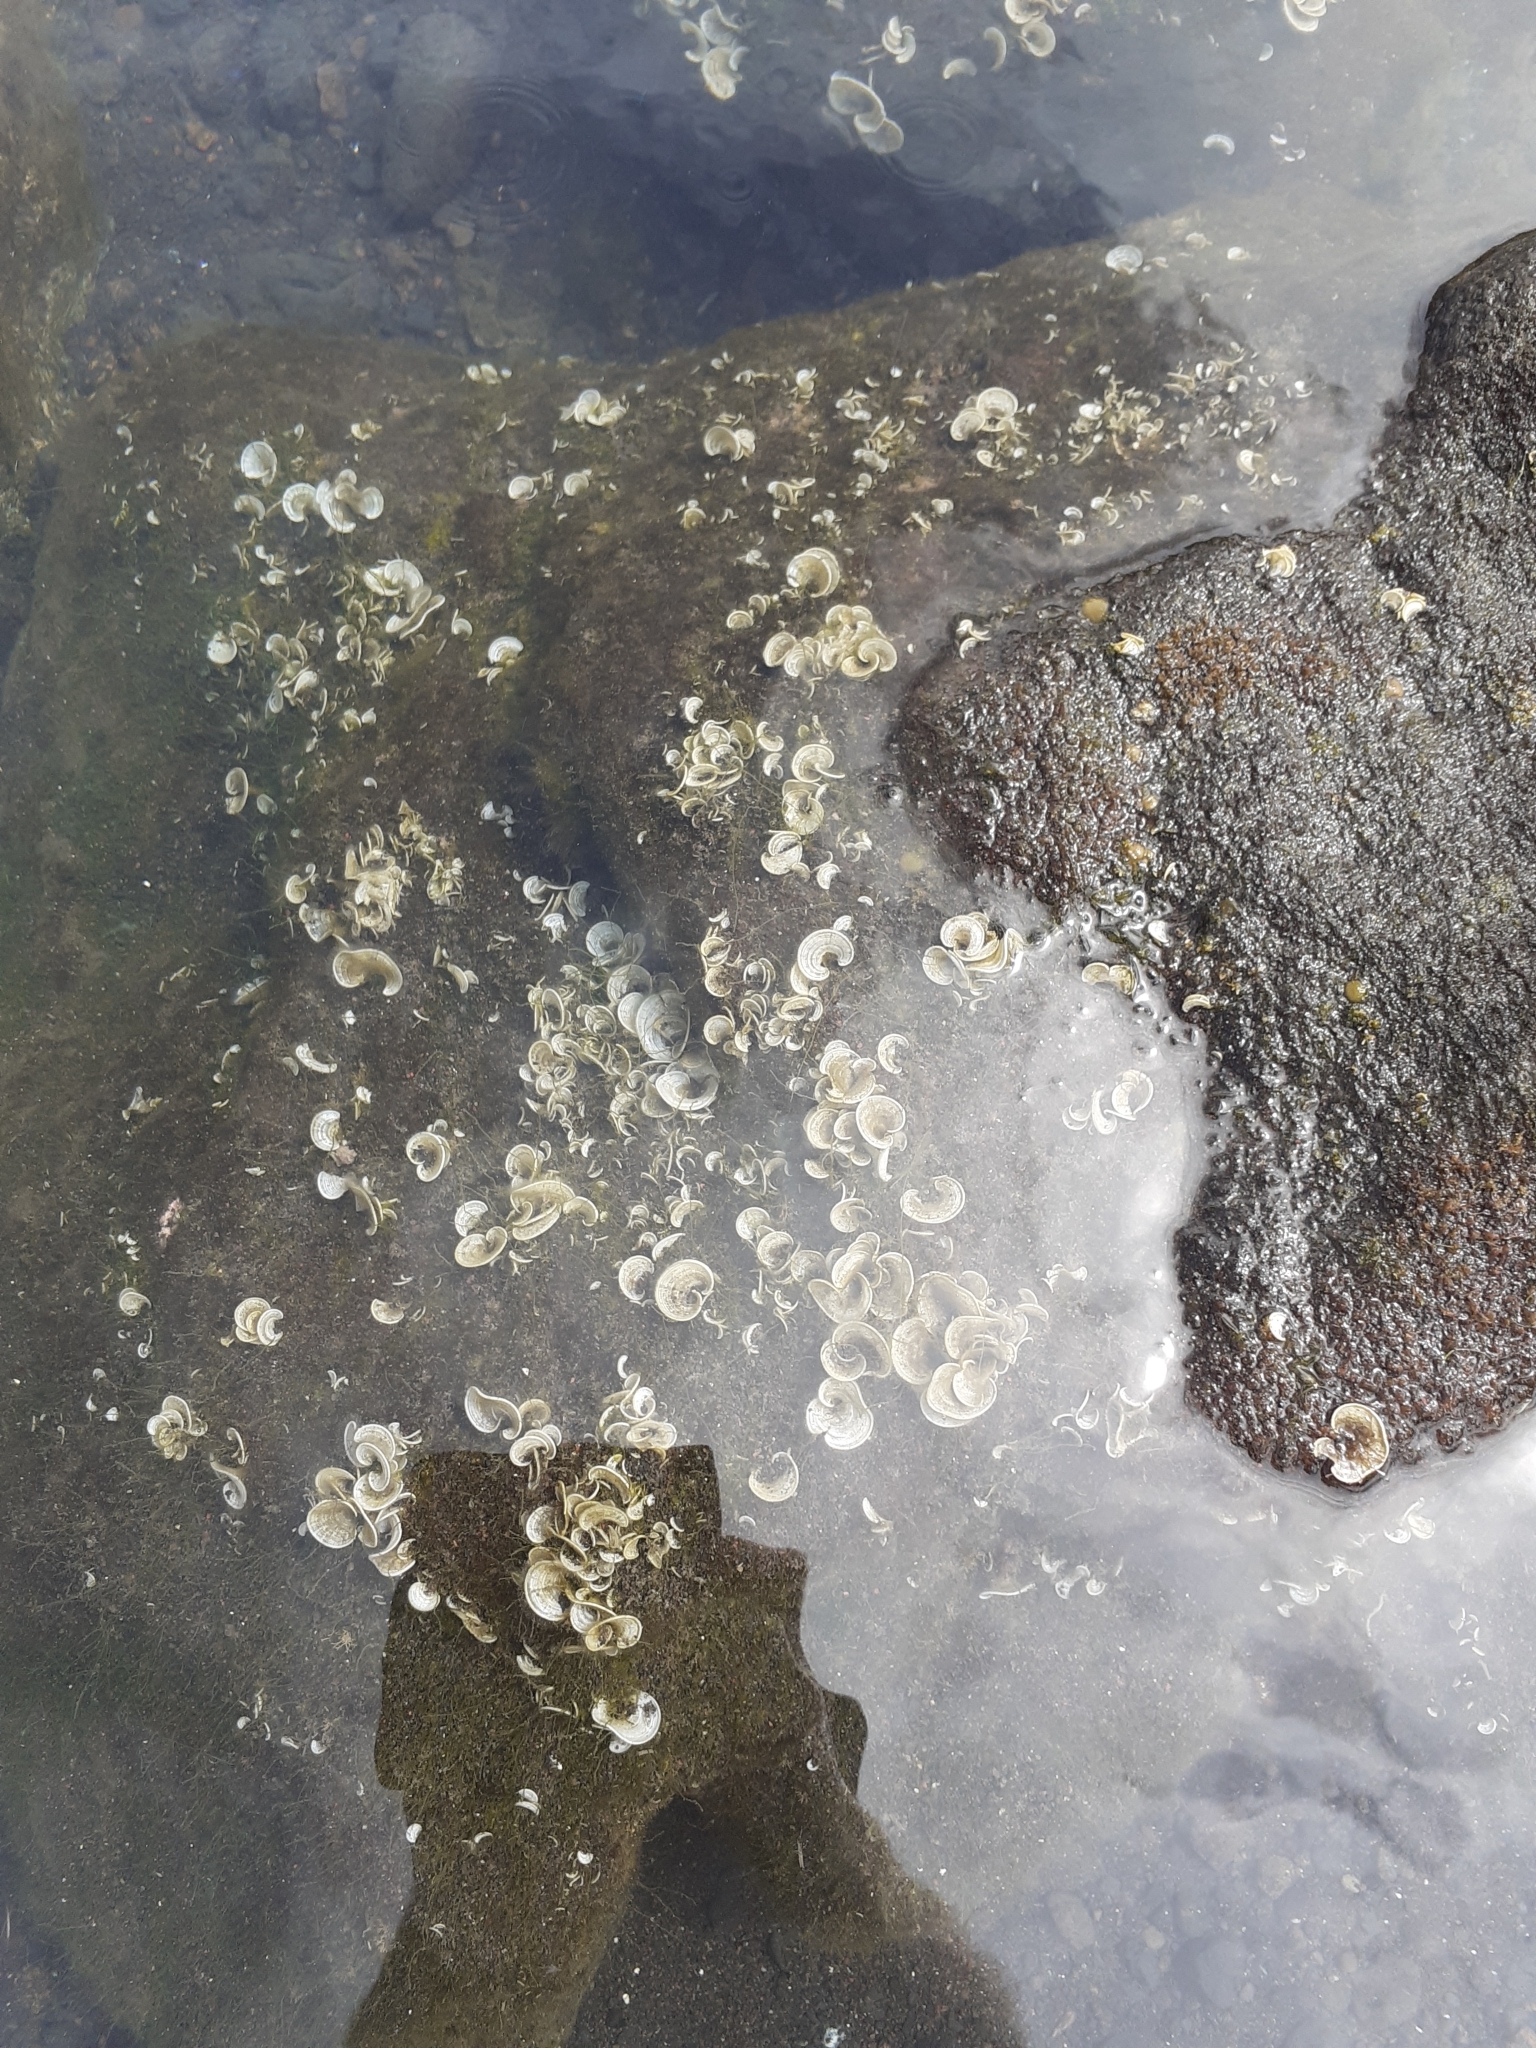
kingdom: Chromista
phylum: Ochrophyta
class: Phaeophyceae
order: Dictyotales
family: Dictyotaceae
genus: Padina
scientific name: Padina pavonica
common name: Turkey feather alga
